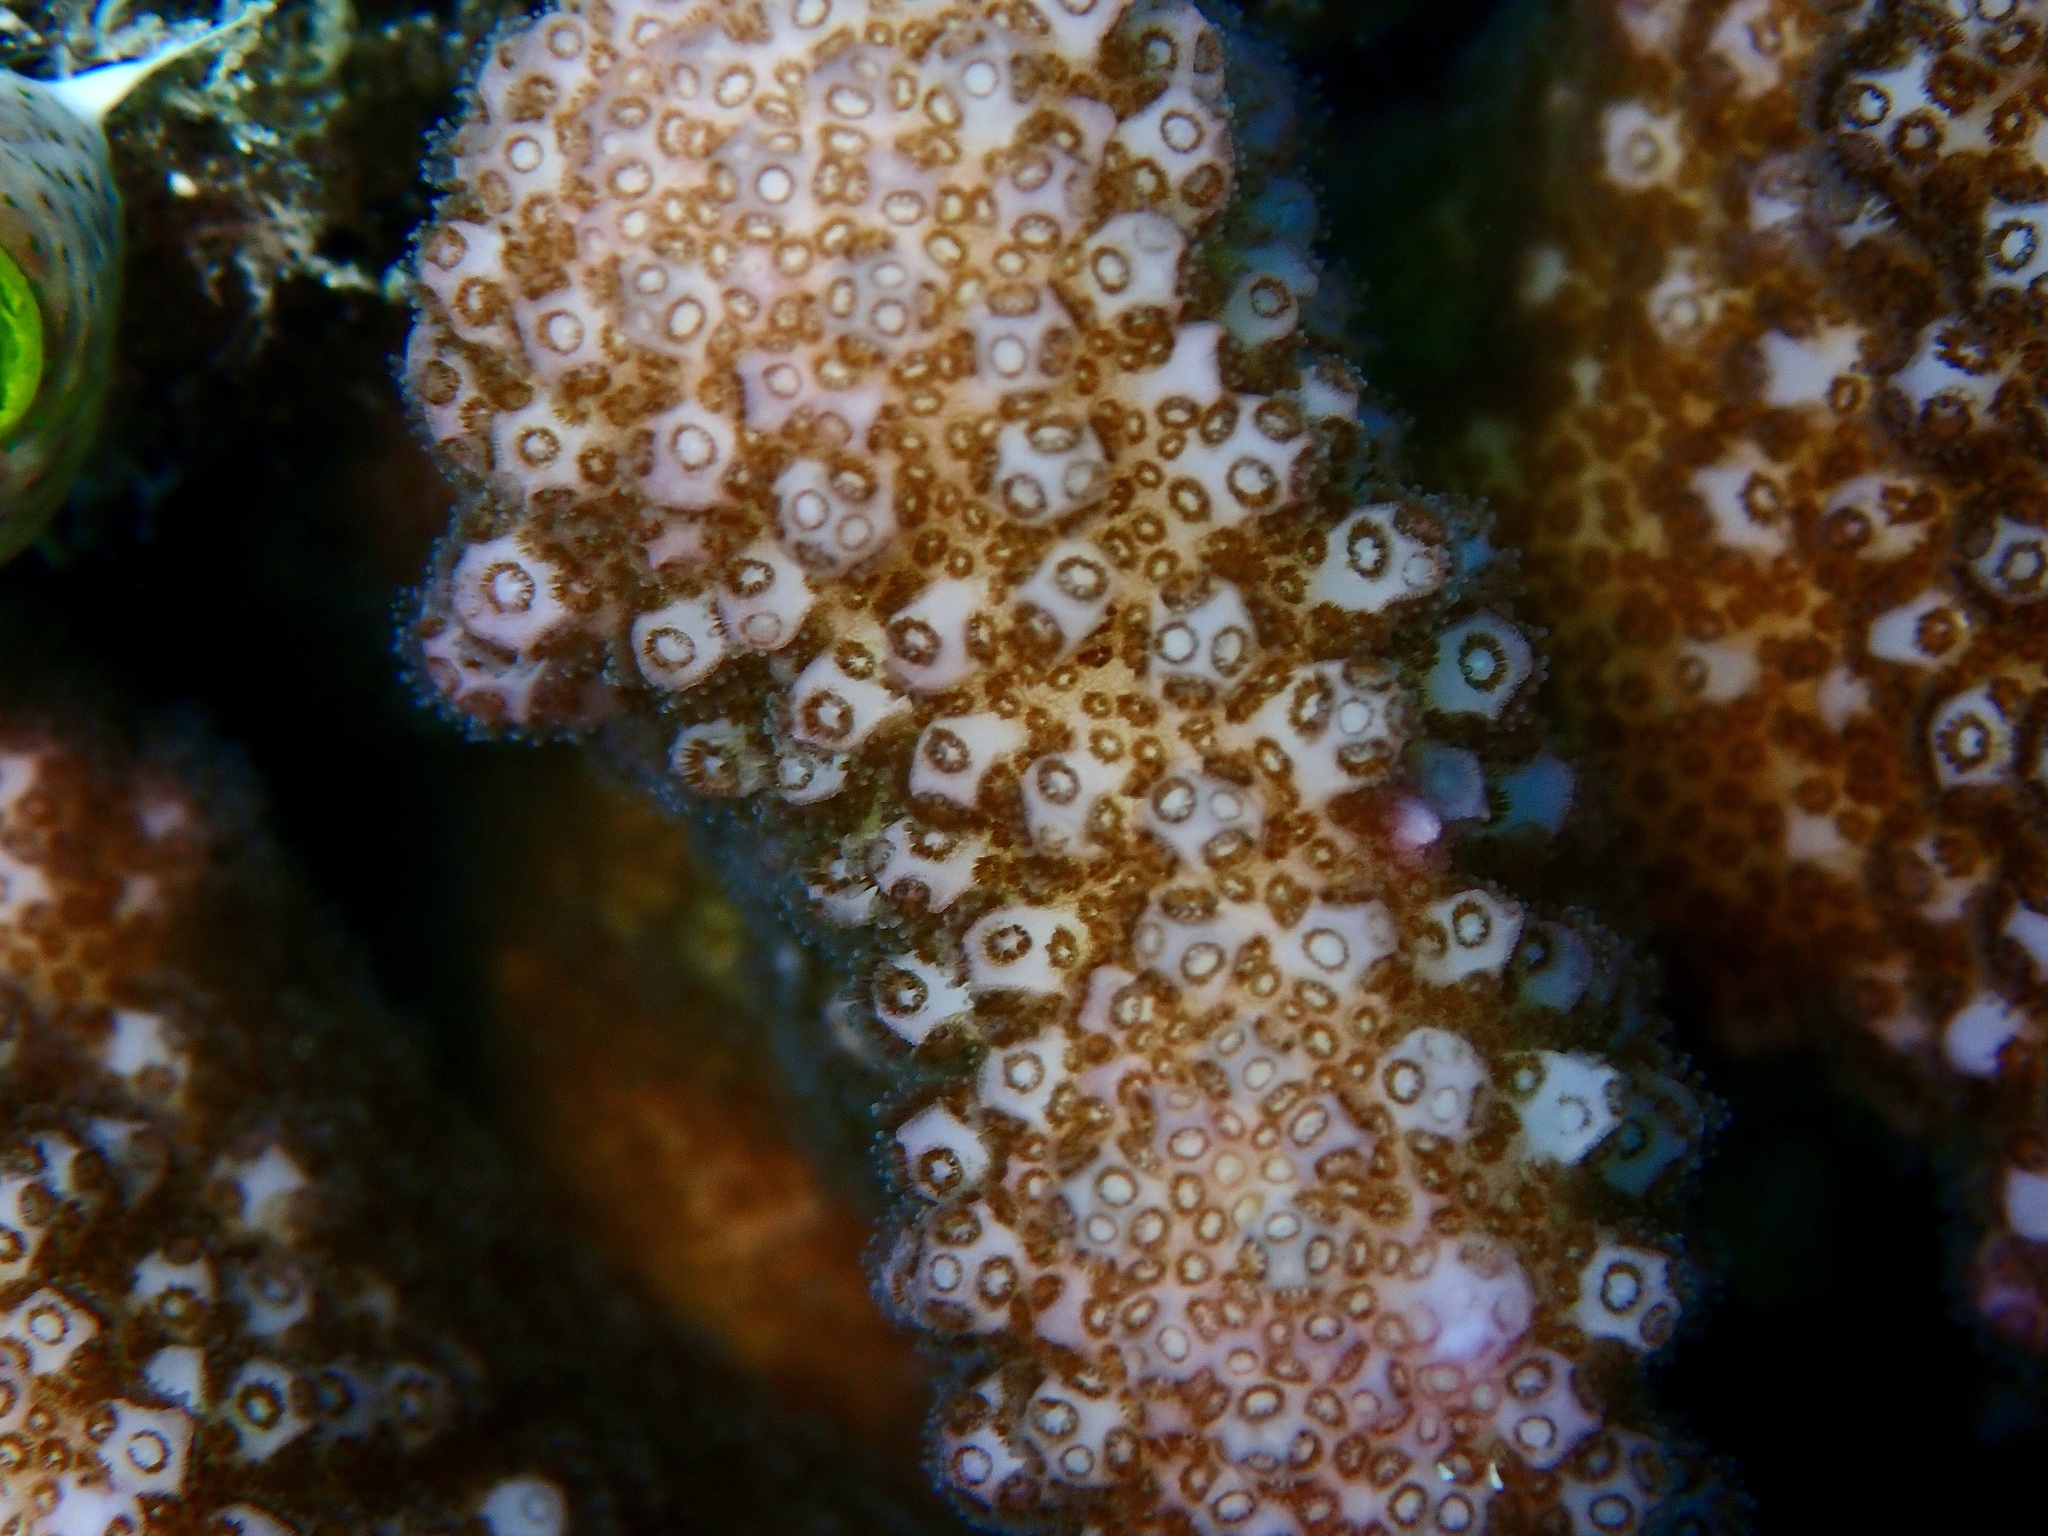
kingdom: Animalia
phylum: Cnidaria
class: Anthozoa
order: Scleractinia
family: Pocilloporidae
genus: Pocillopora
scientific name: Pocillopora verrucosa
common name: Cauliflower coral
